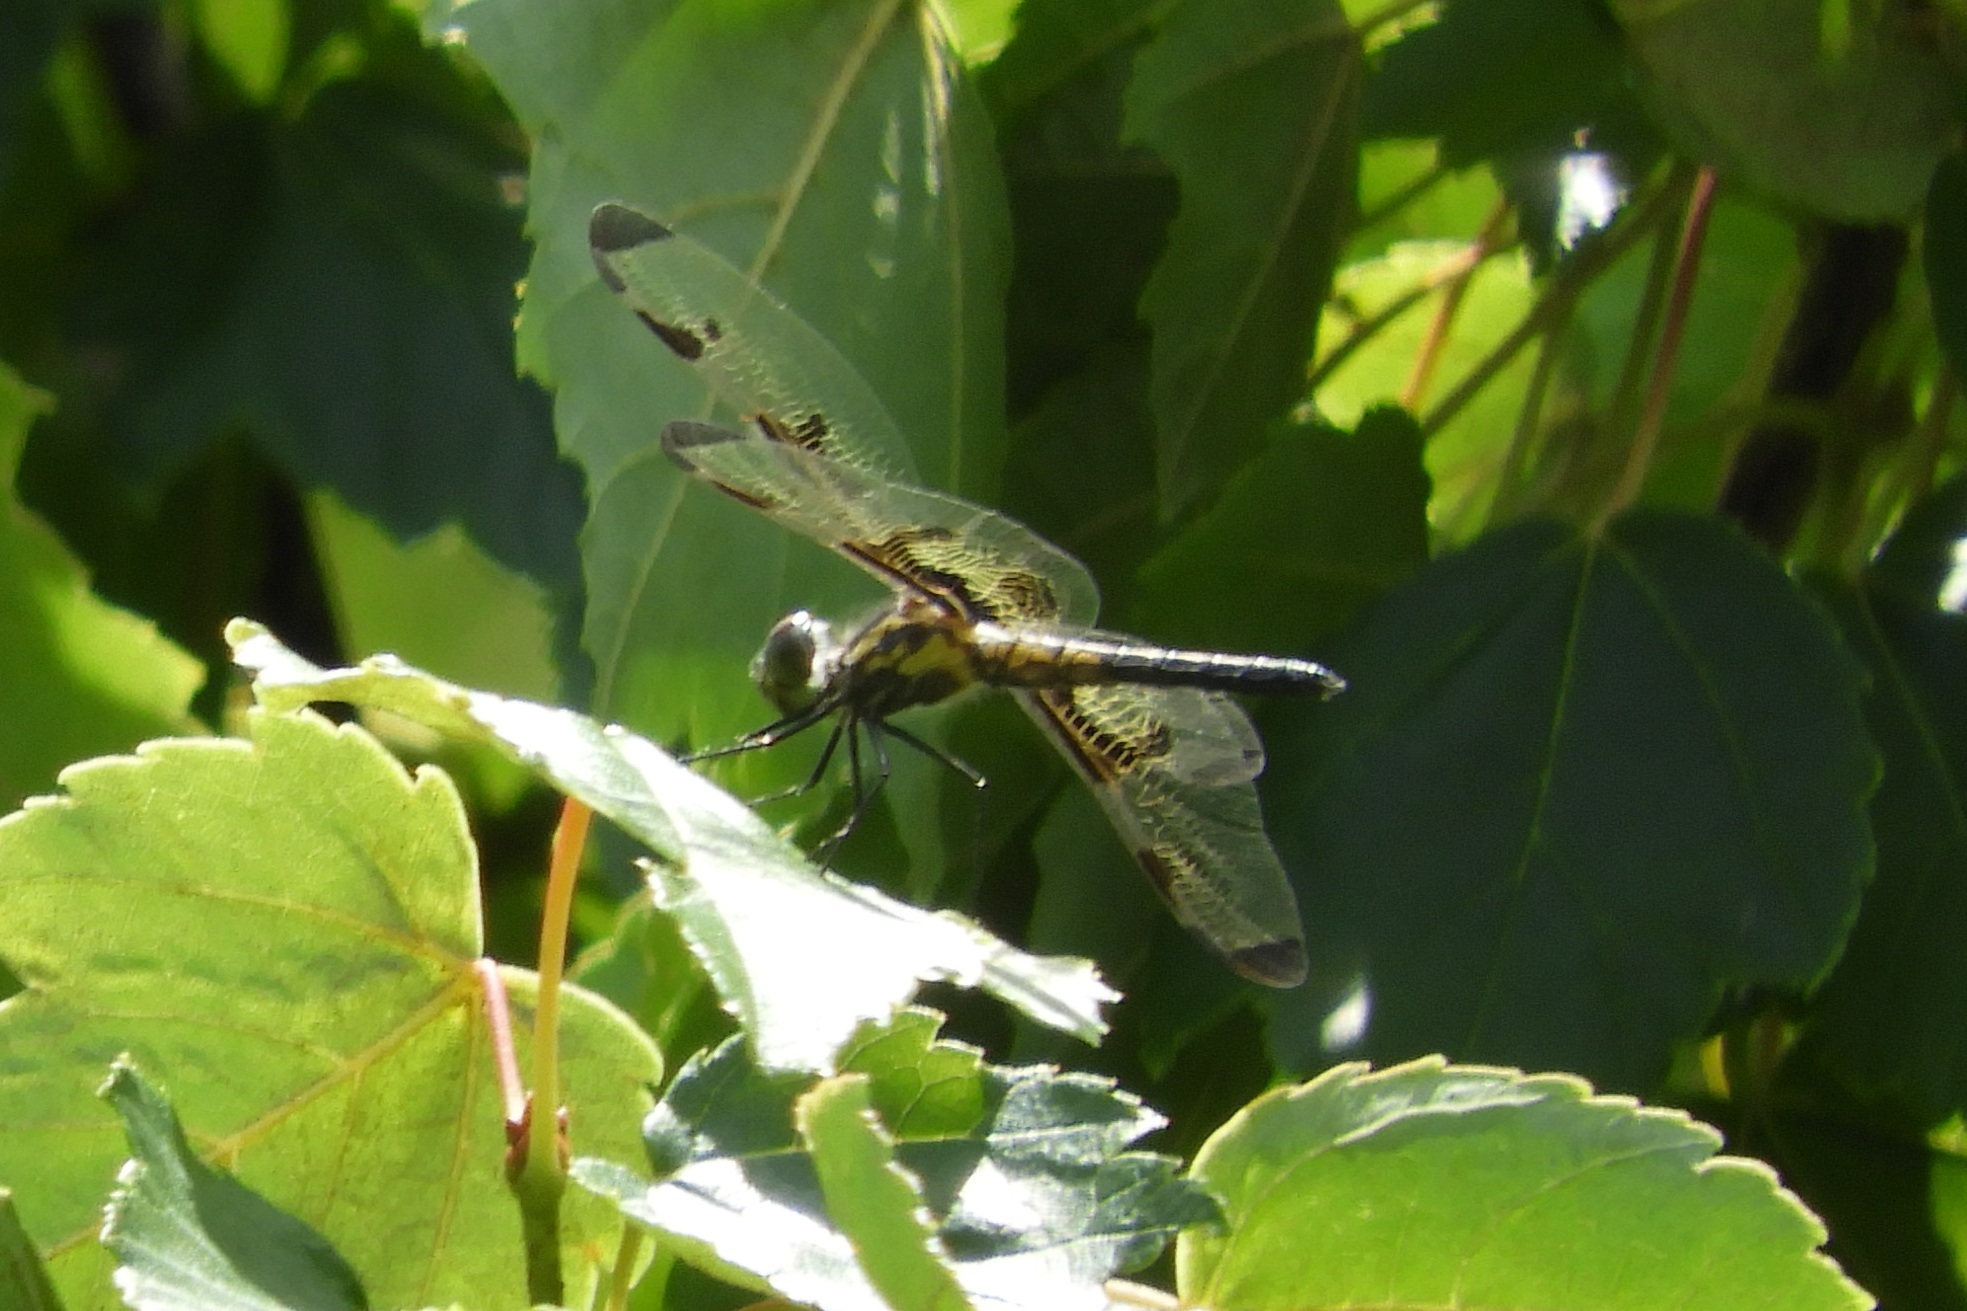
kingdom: Animalia
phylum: Arthropoda
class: Insecta
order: Odonata
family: Libellulidae
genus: Celithemis
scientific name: Celithemis elisa
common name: Calico pennant
